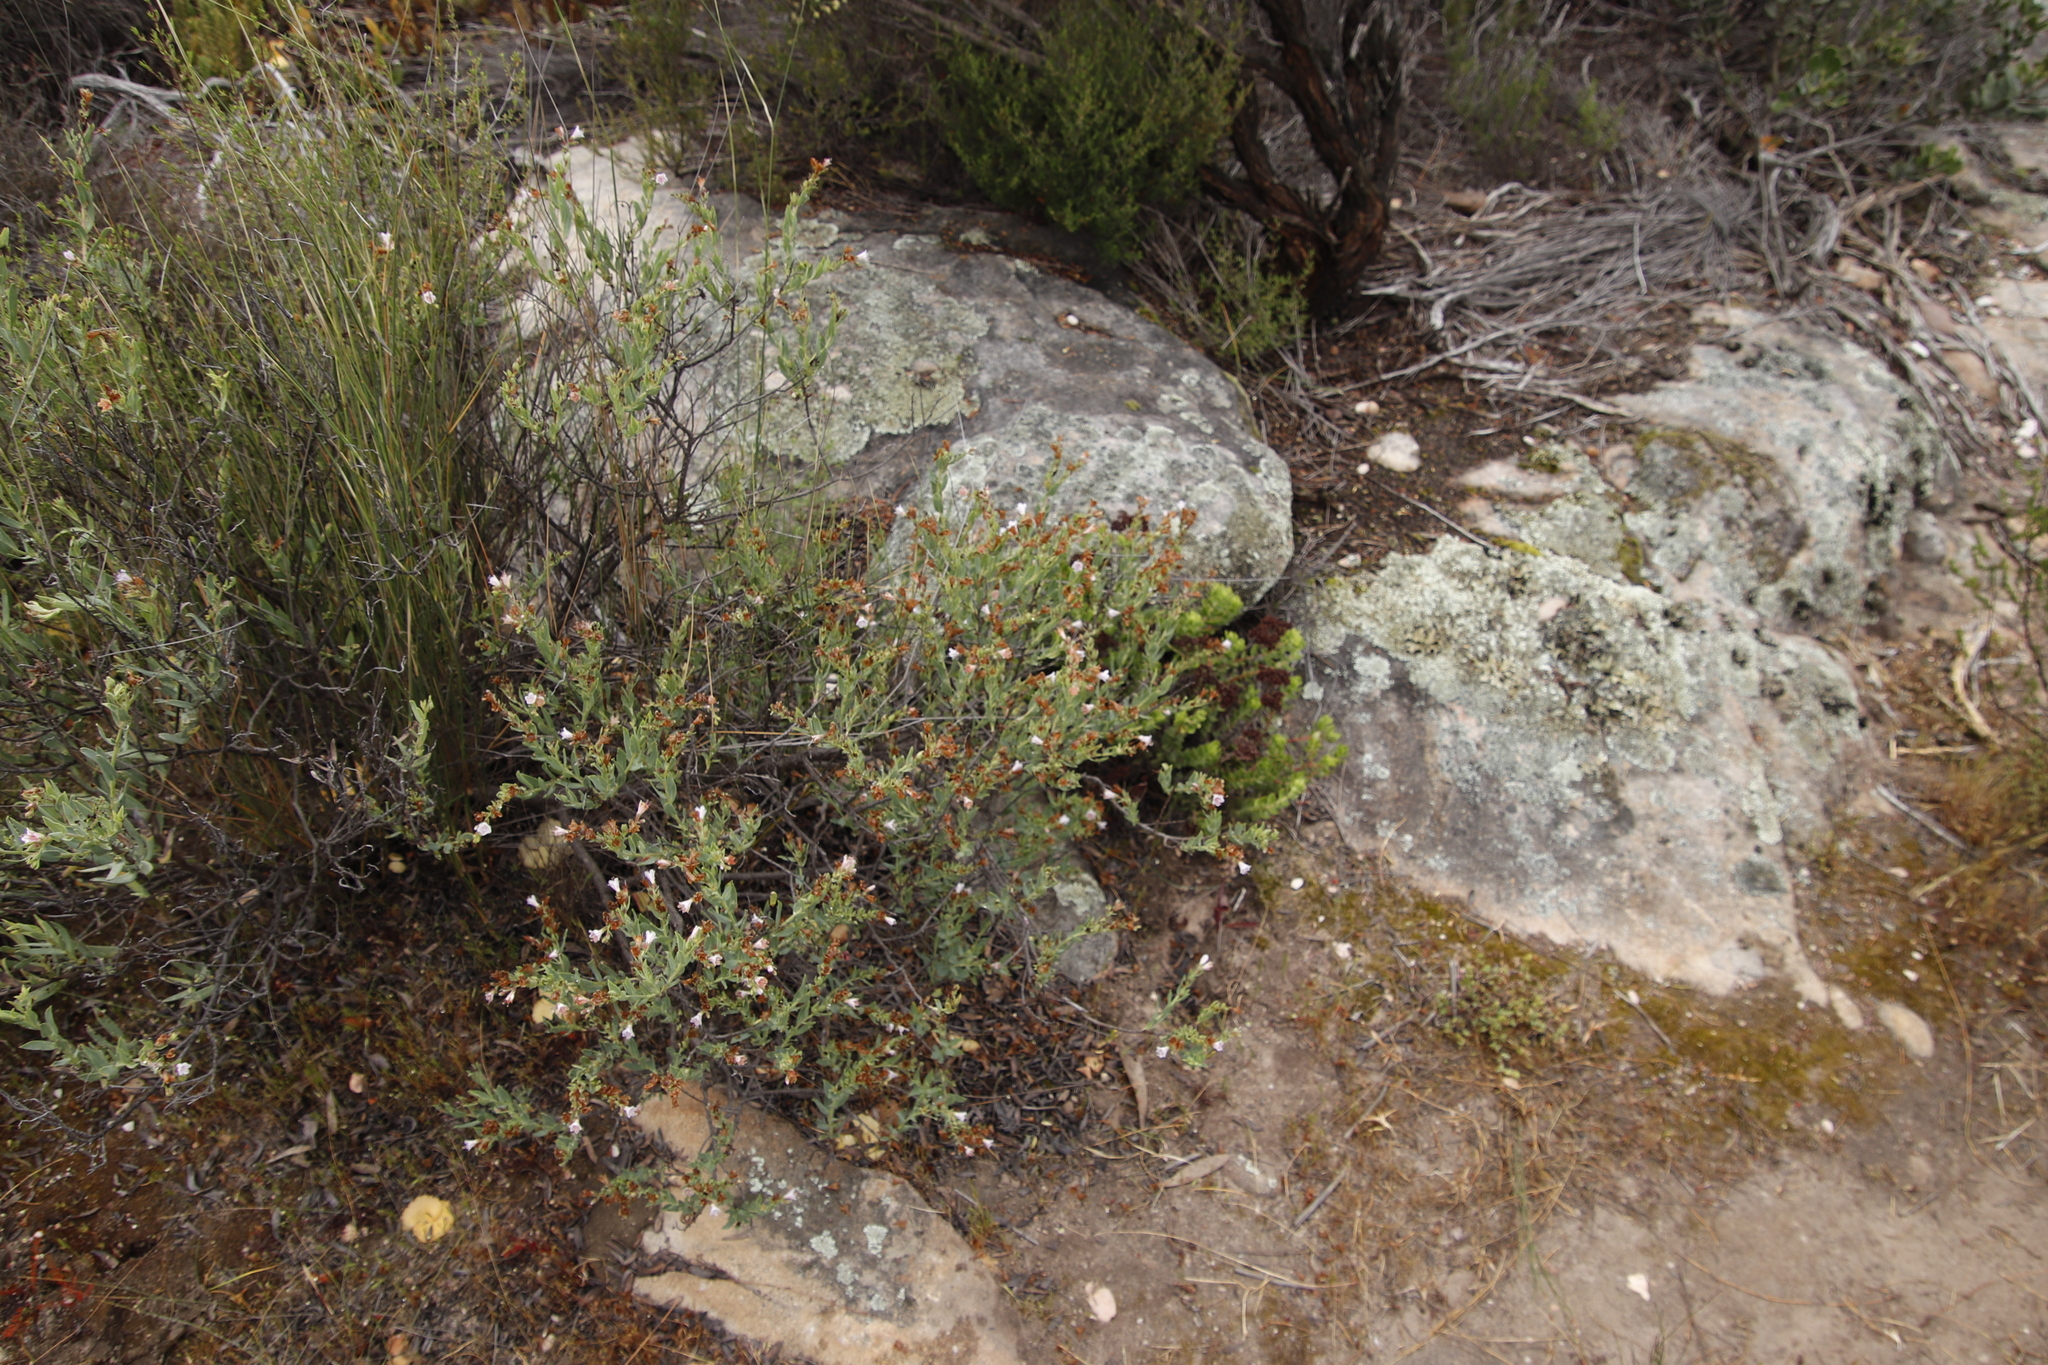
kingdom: Plantae
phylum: Tracheophyta
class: Magnoliopsida
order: Boraginales
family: Boraginaceae
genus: Lobostemon
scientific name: Lobostemon glaucophyllus
